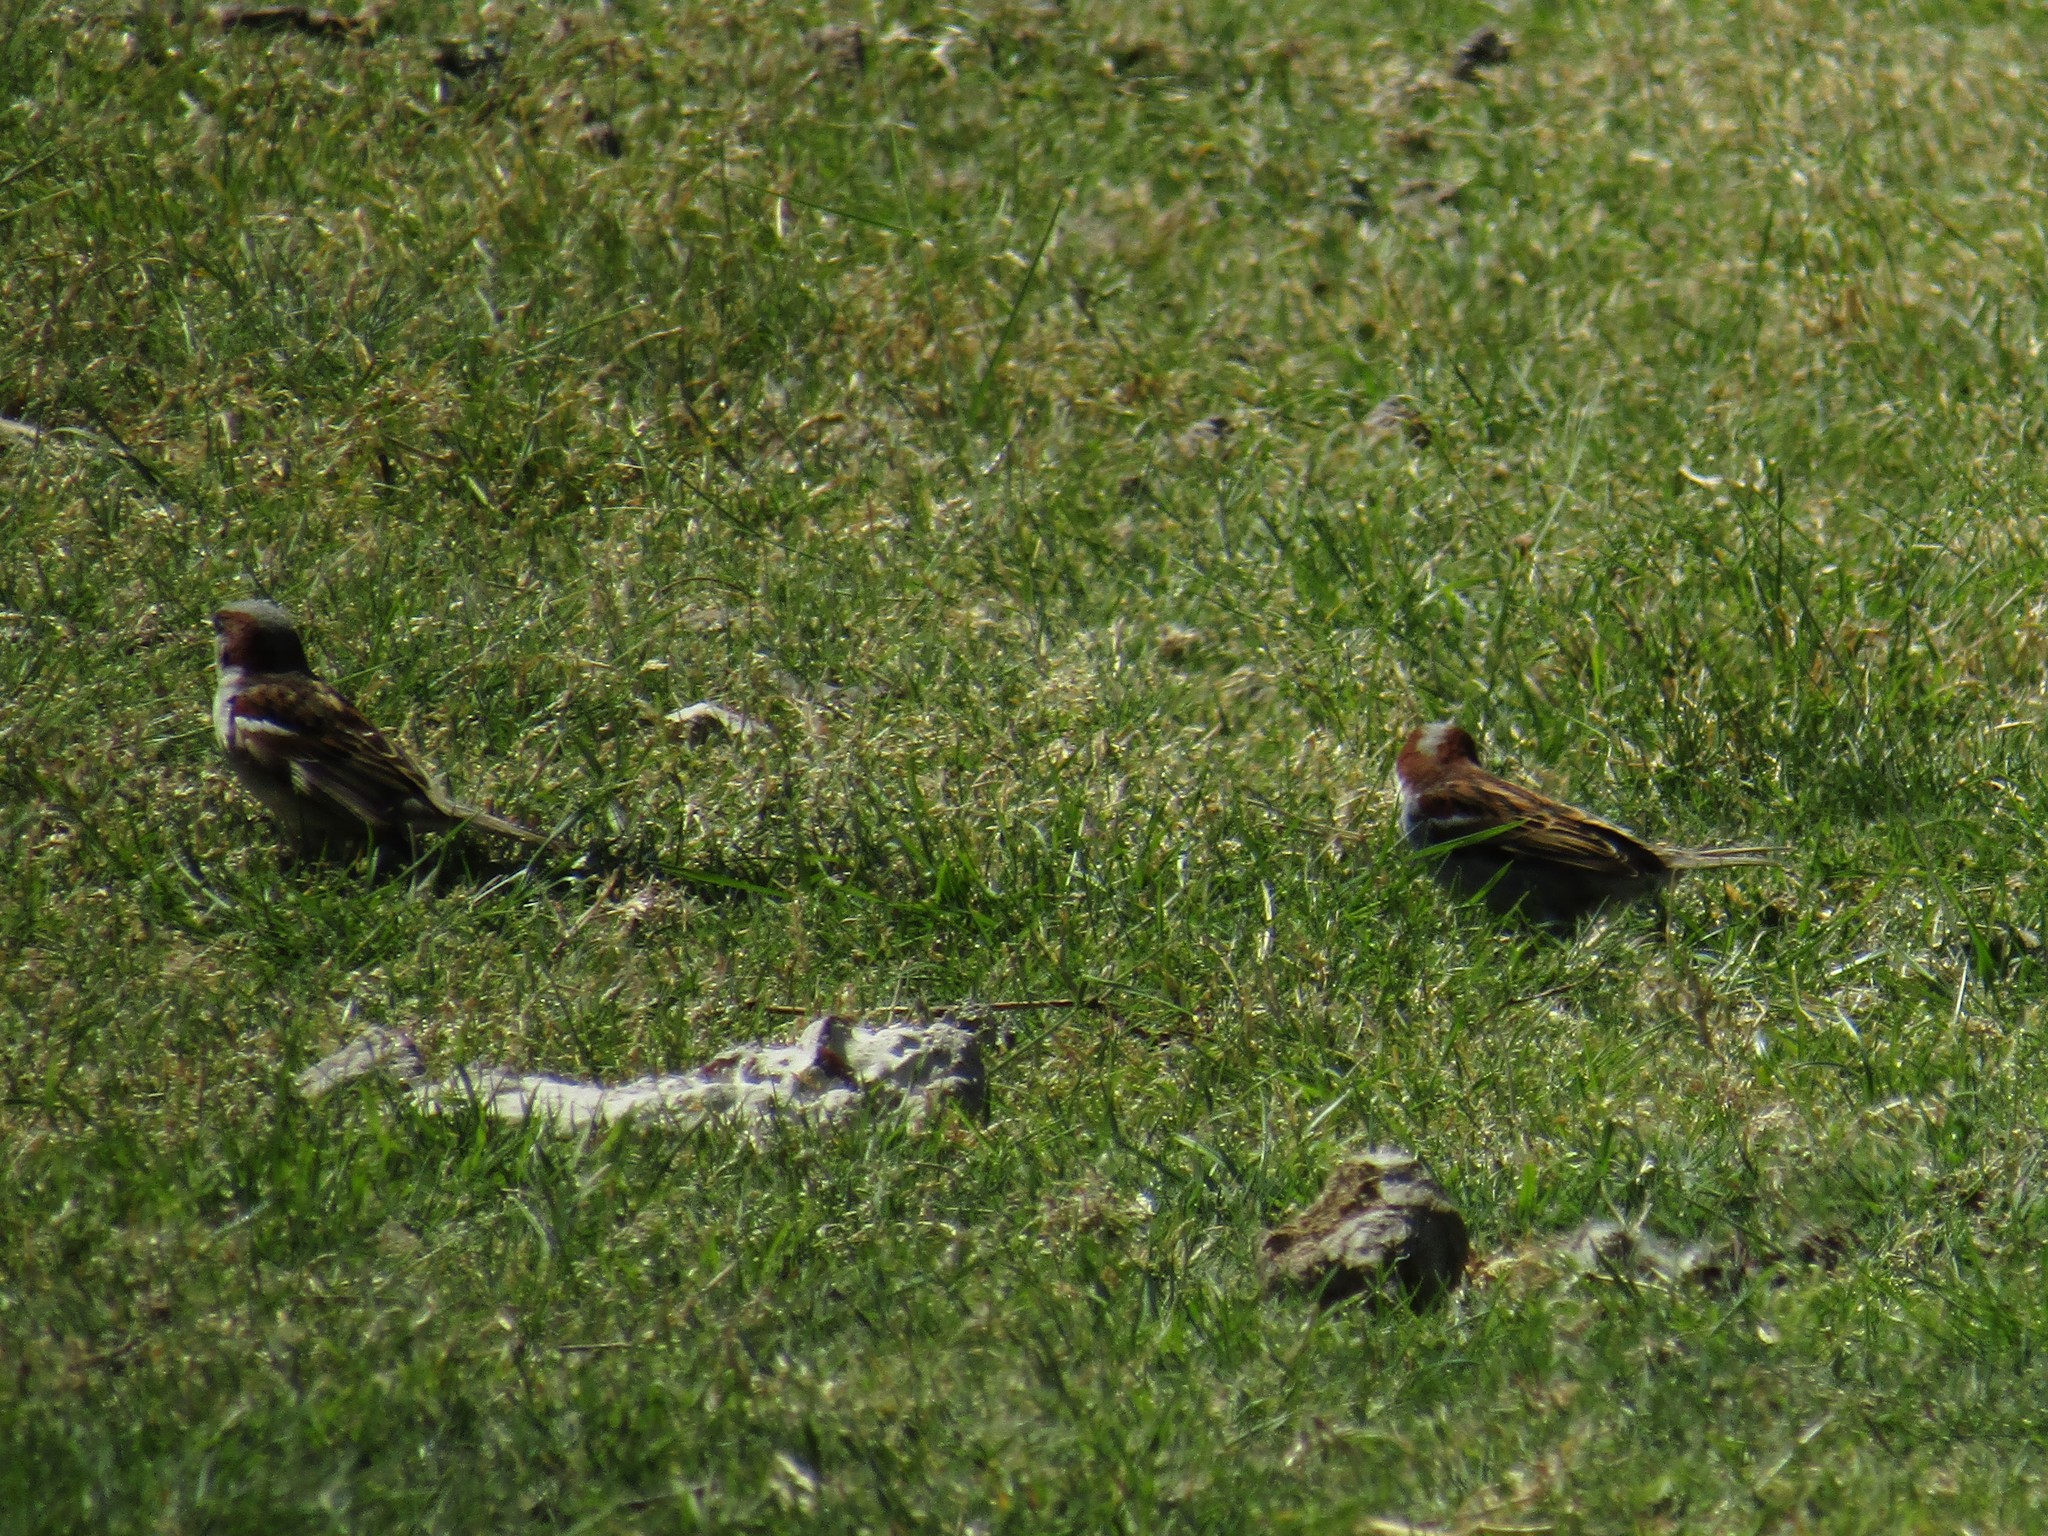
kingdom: Animalia
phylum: Chordata
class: Aves
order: Passeriformes
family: Passeridae
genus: Passer
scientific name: Passer domesticus
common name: House sparrow
